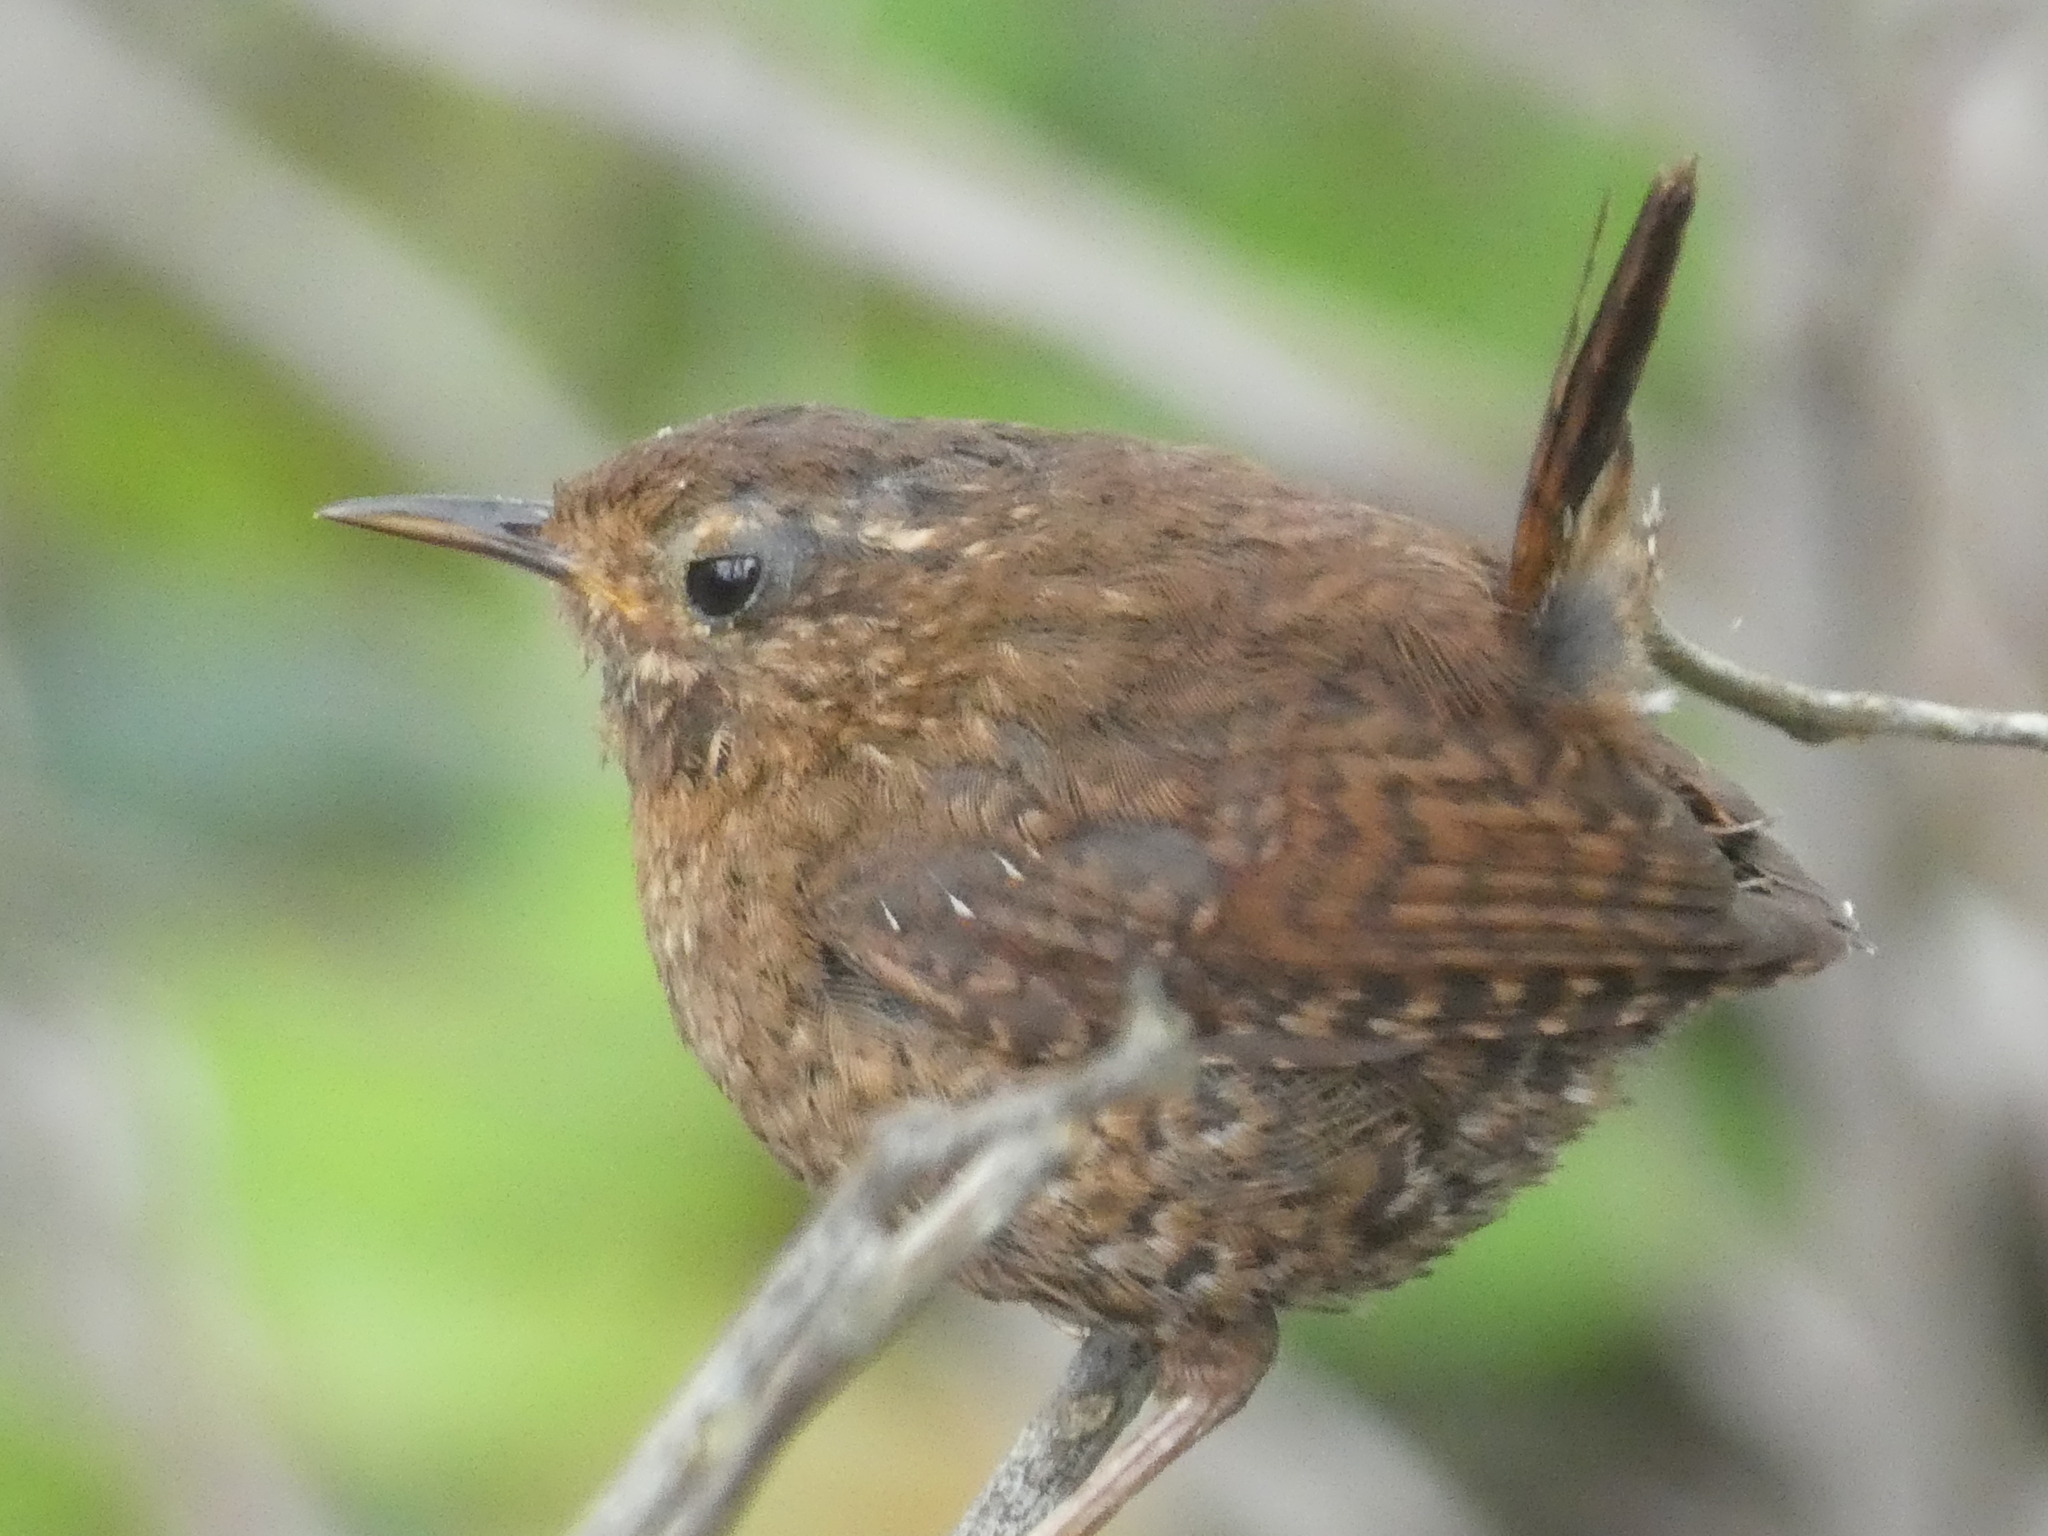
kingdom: Animalia
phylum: Chordata
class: Aves
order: Passeriformes
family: Troglodytidae
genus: Troglodytes
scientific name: Troglodytes pacificus
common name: Pacific wren
